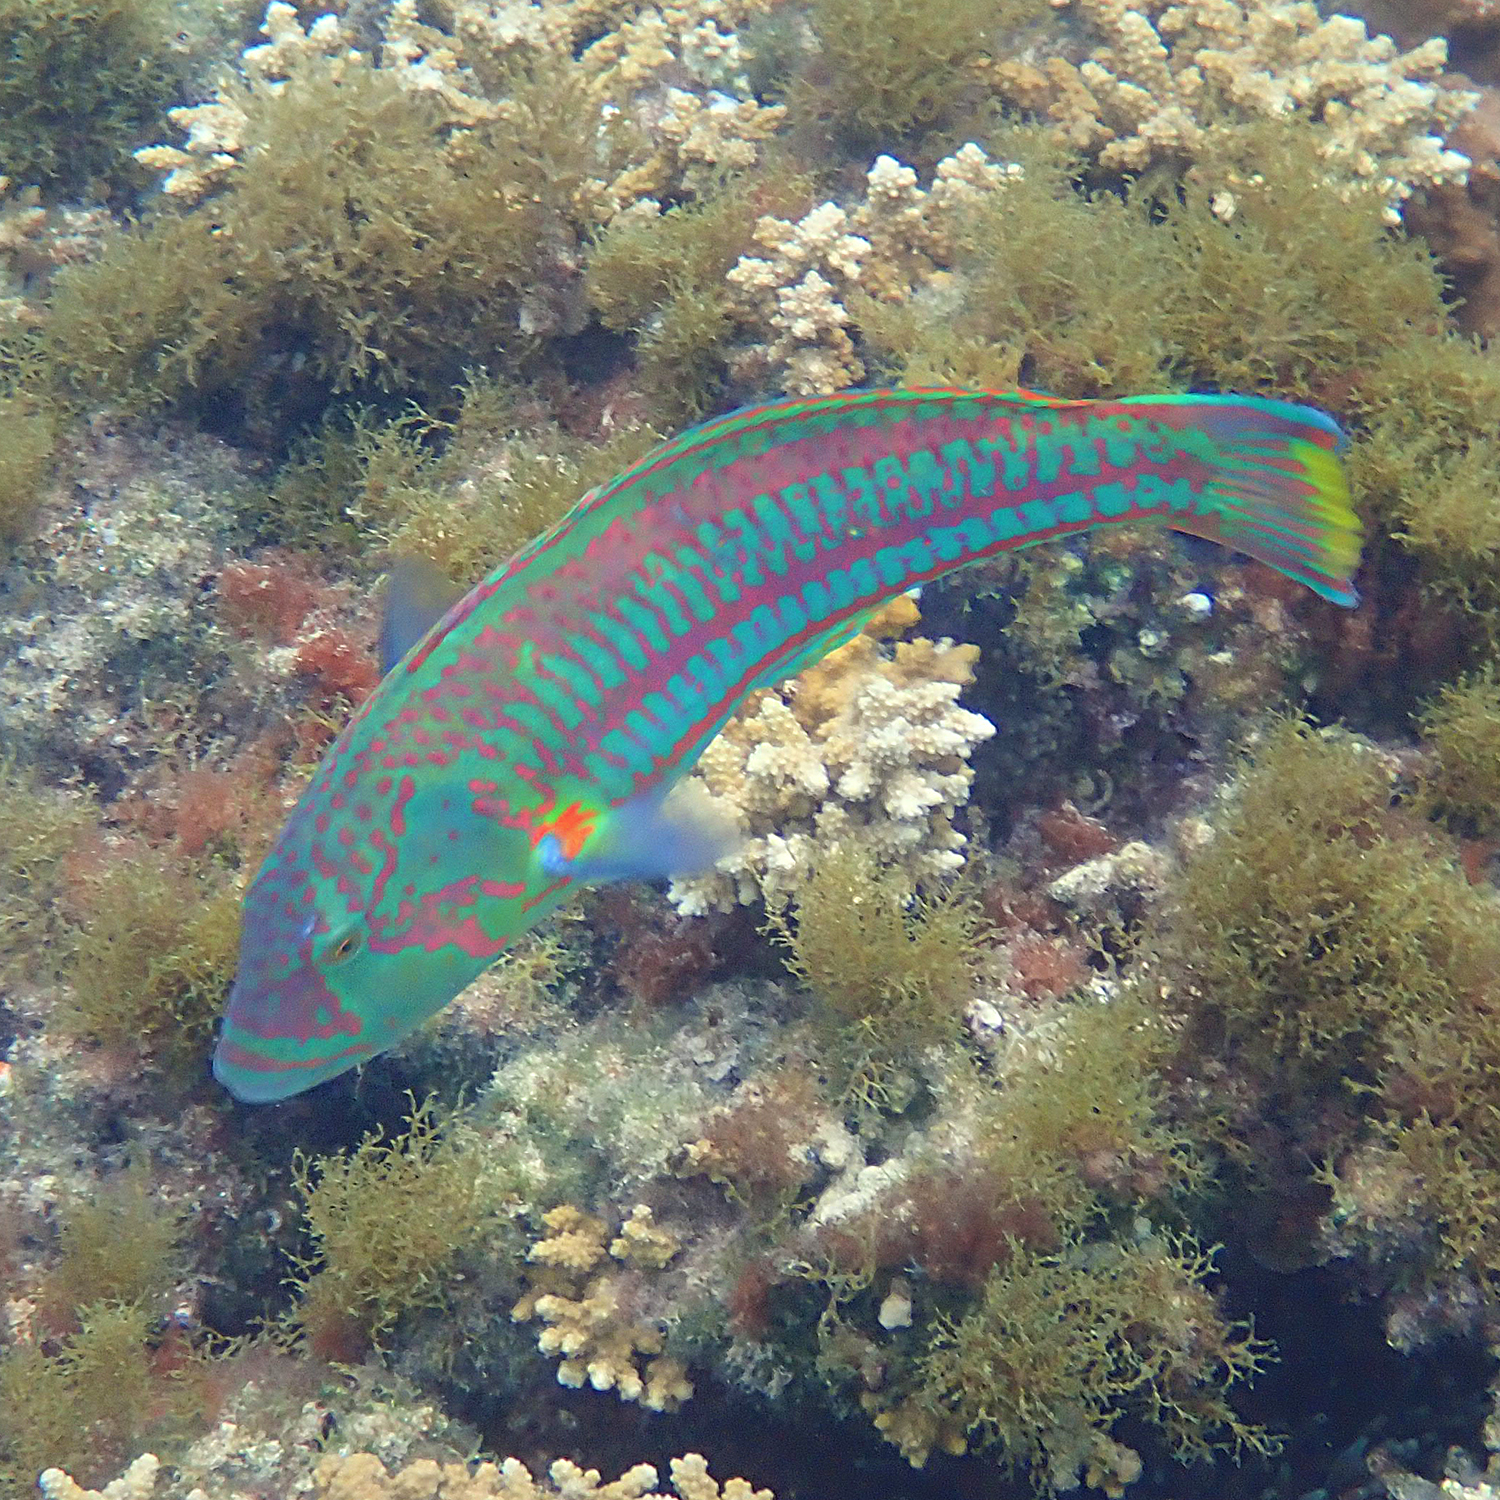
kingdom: Animalia
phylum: Chordata
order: Perciformes
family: Labridae
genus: Thalassoma
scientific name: Thalassoma purpureum
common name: Parrotfish
